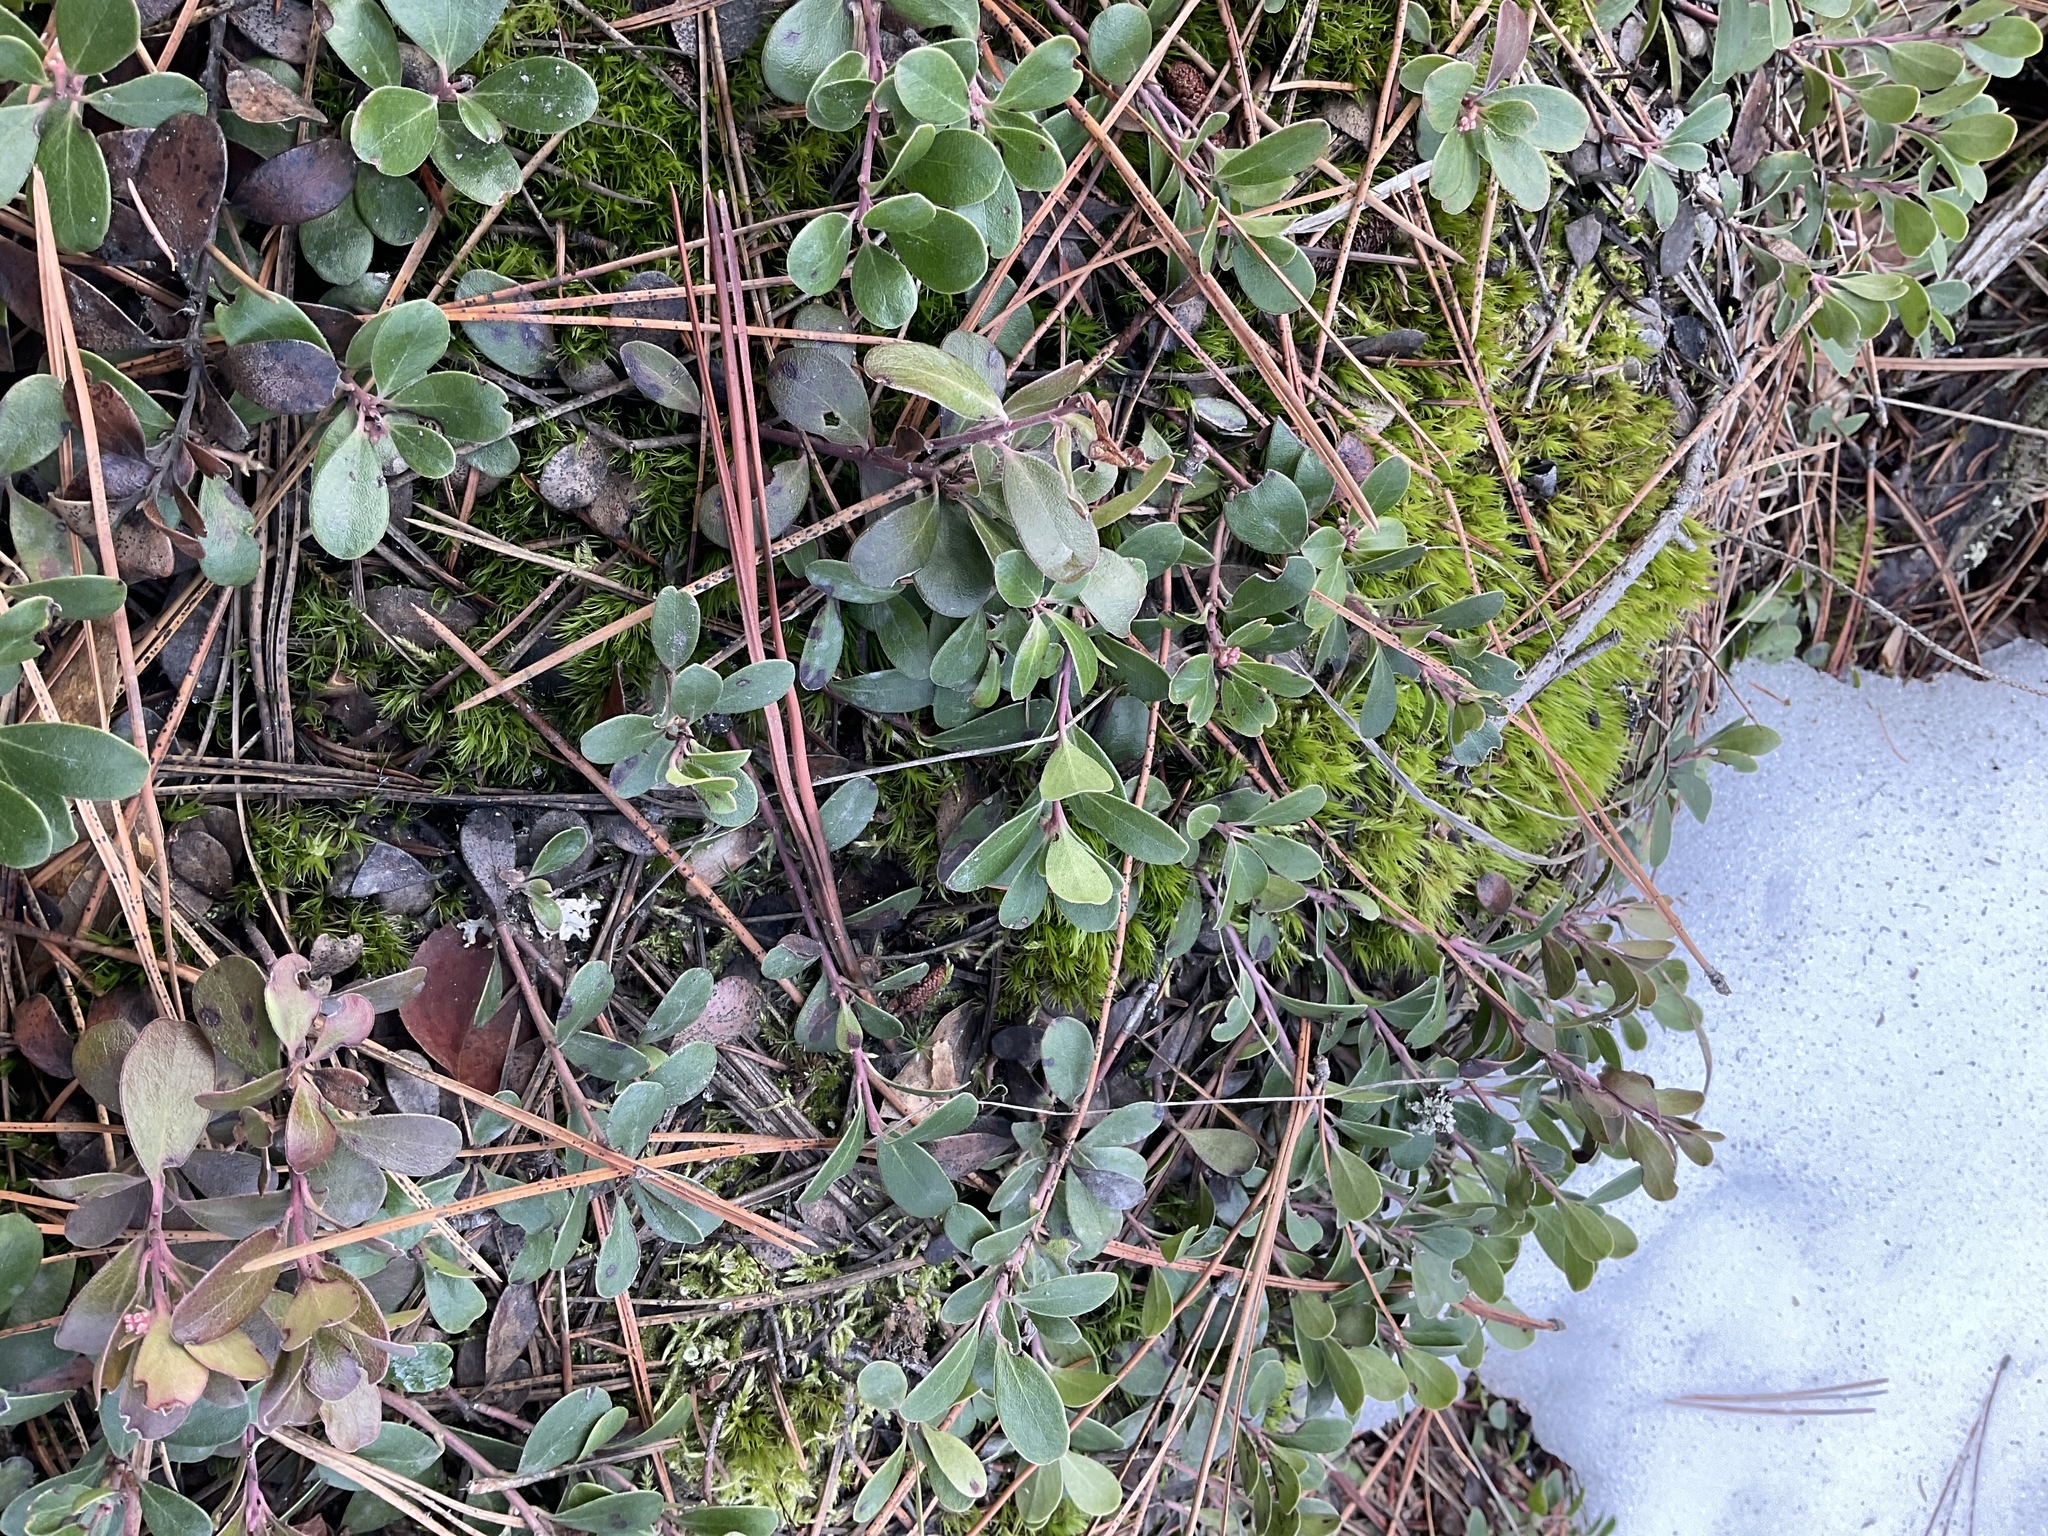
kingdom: Plantae
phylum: Tracheophyta
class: Magnoliopsida
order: Ericales
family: Ericaceae
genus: Arctostaphylos
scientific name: Arctostaphylos uva-ursi
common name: Bearberry
